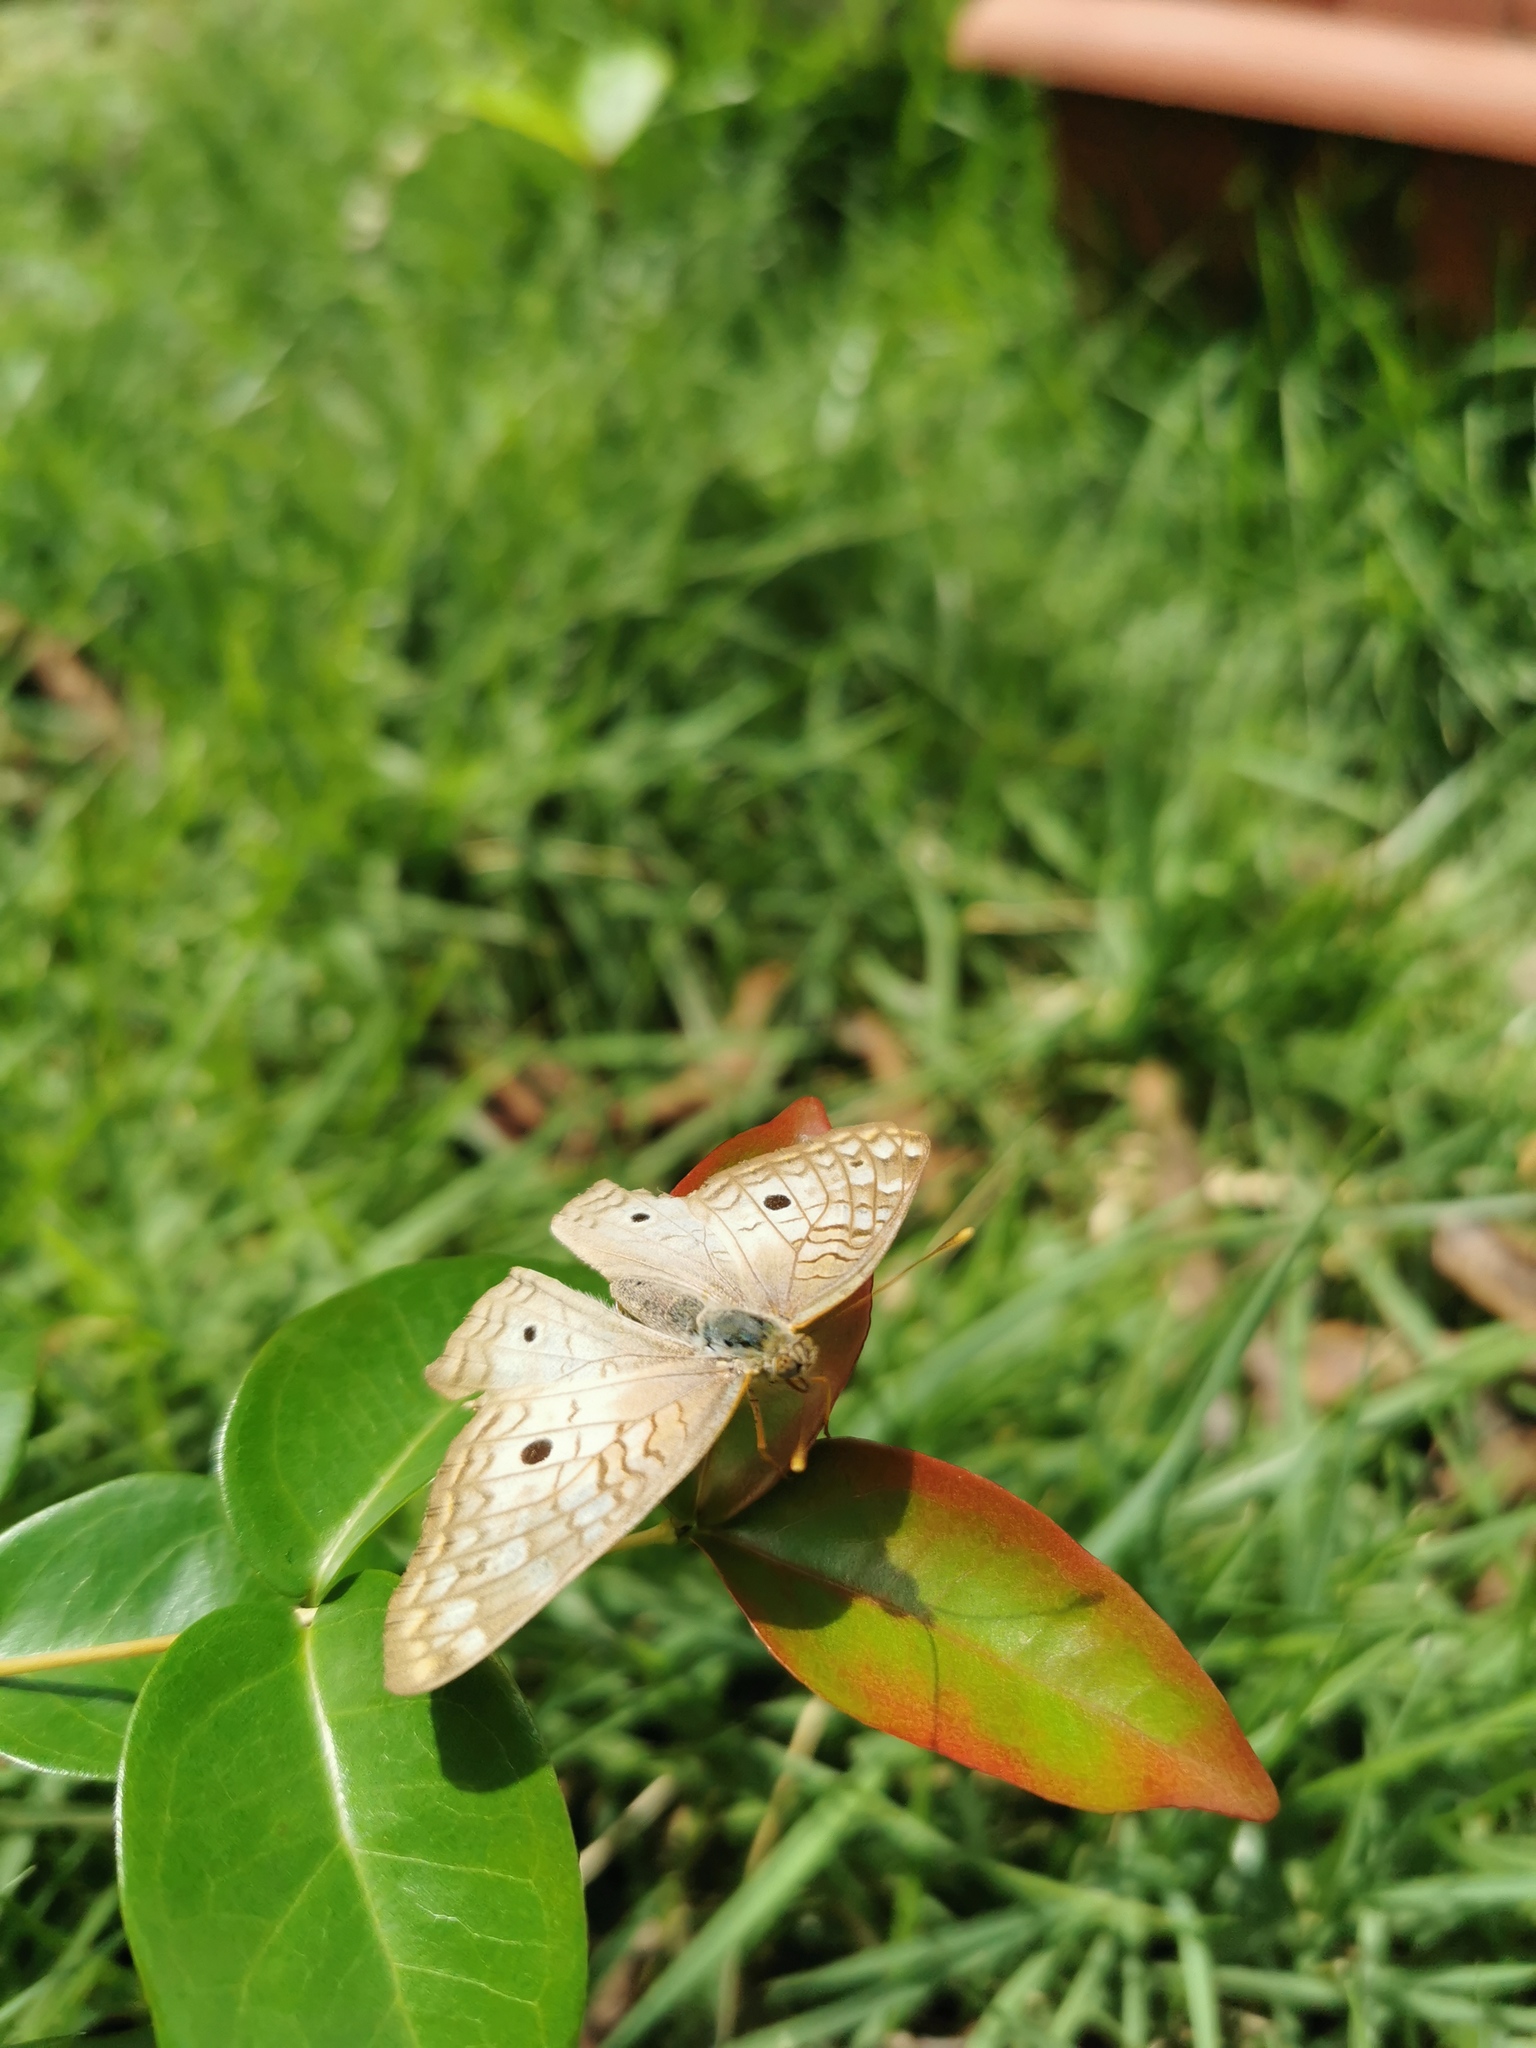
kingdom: Animalia
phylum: Arthropoda
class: Insecta
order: Lepidoptera
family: Nymphalidae
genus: Anartia
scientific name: Anartia jatrophae
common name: White peacock
